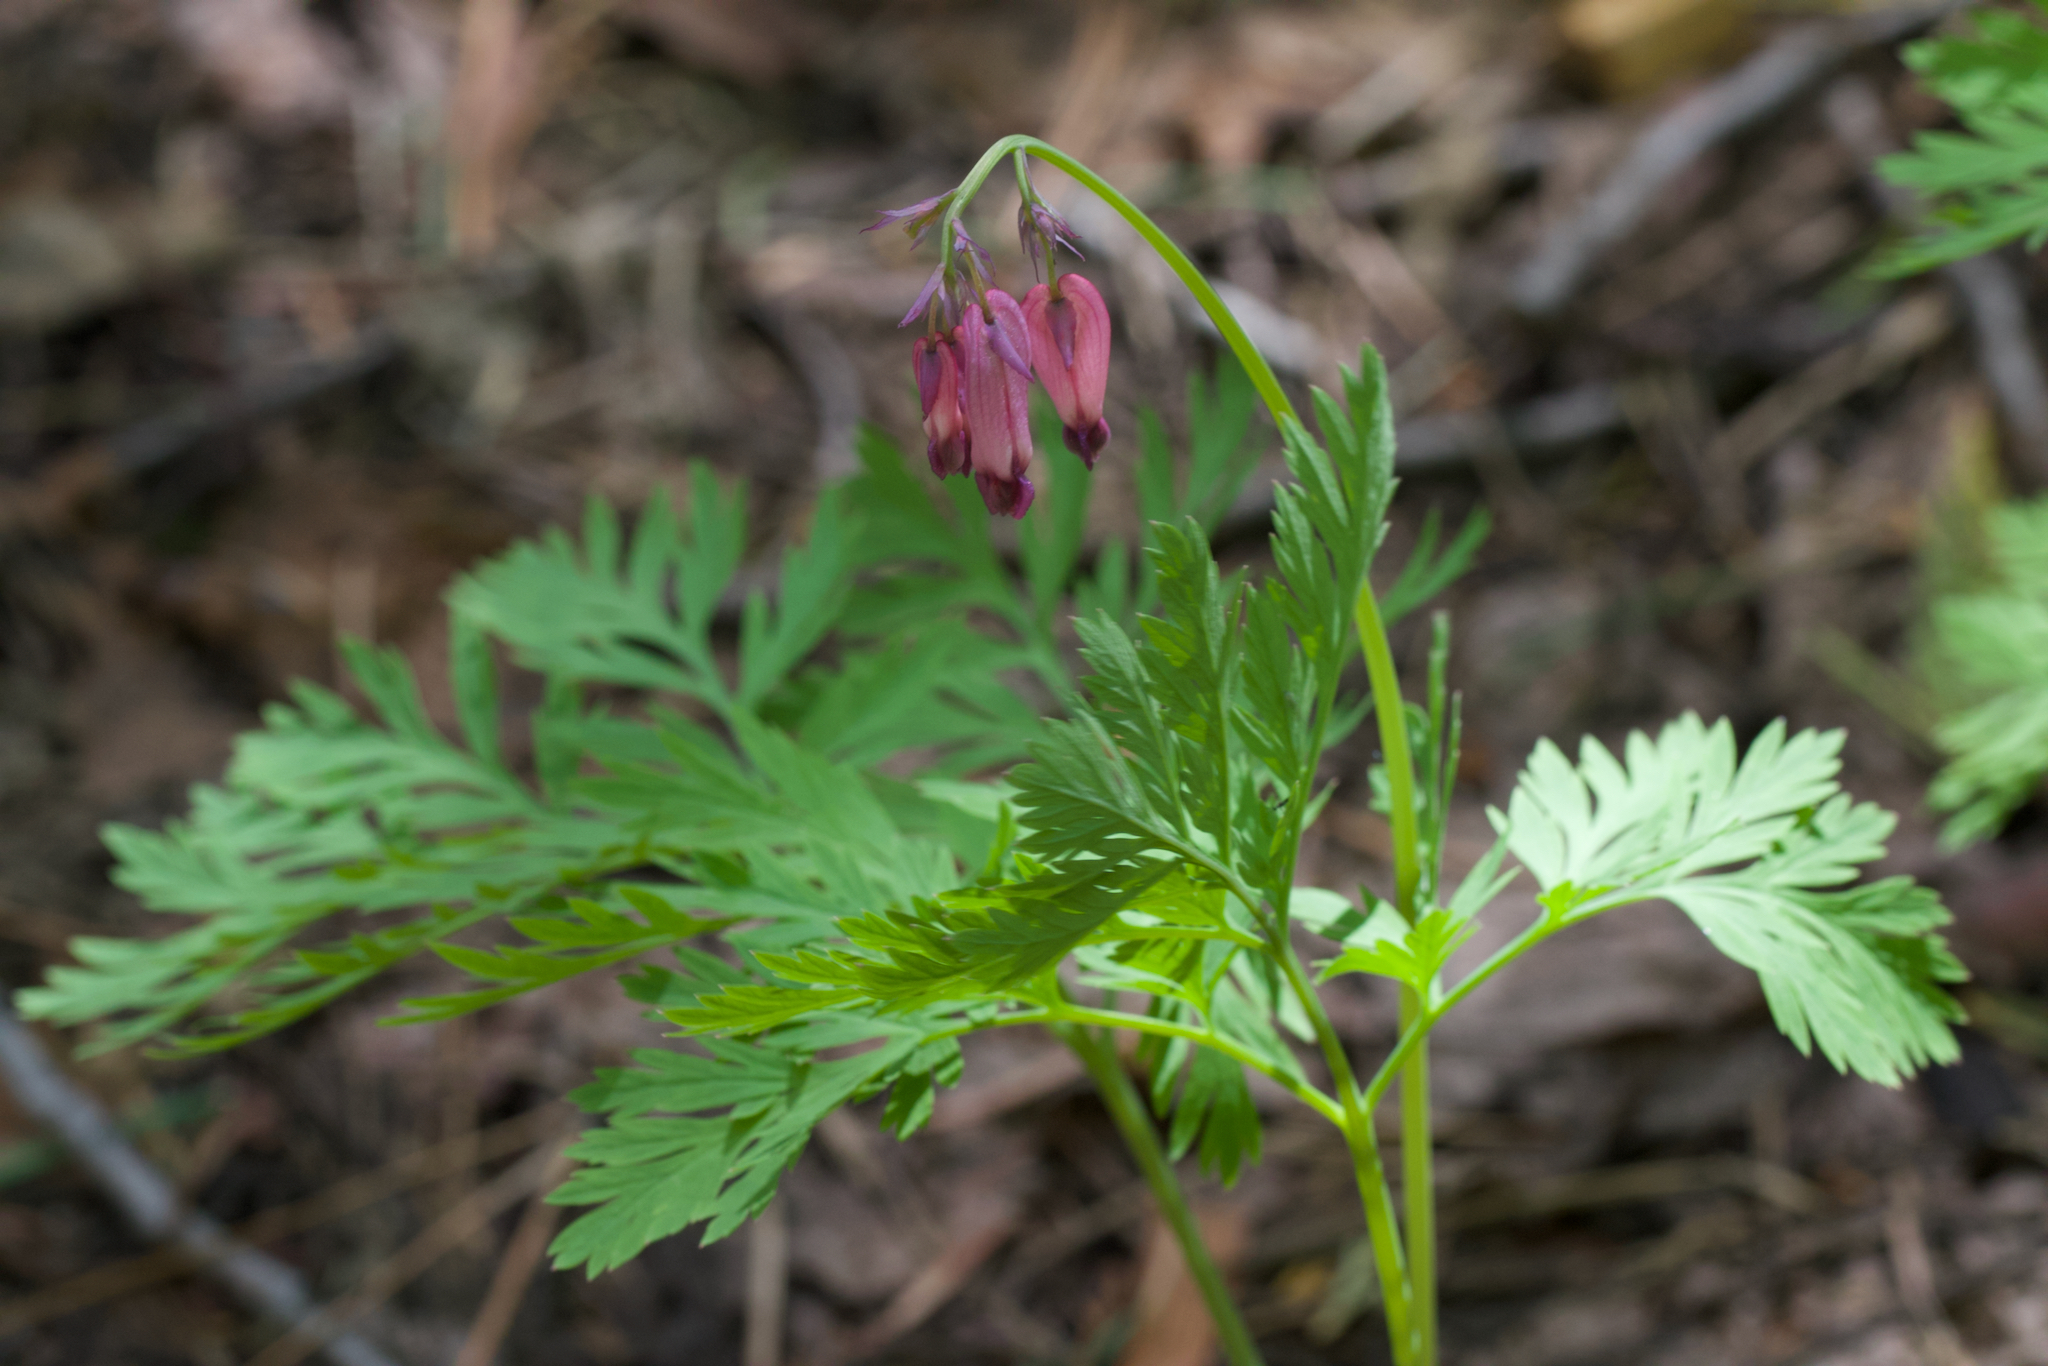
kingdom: Plantae
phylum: Tracheophyta
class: Magnoliopsida
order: Ranunculales
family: Papaveraceae
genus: Dicentra
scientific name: Dicentra formosa
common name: Bleeding-heart
